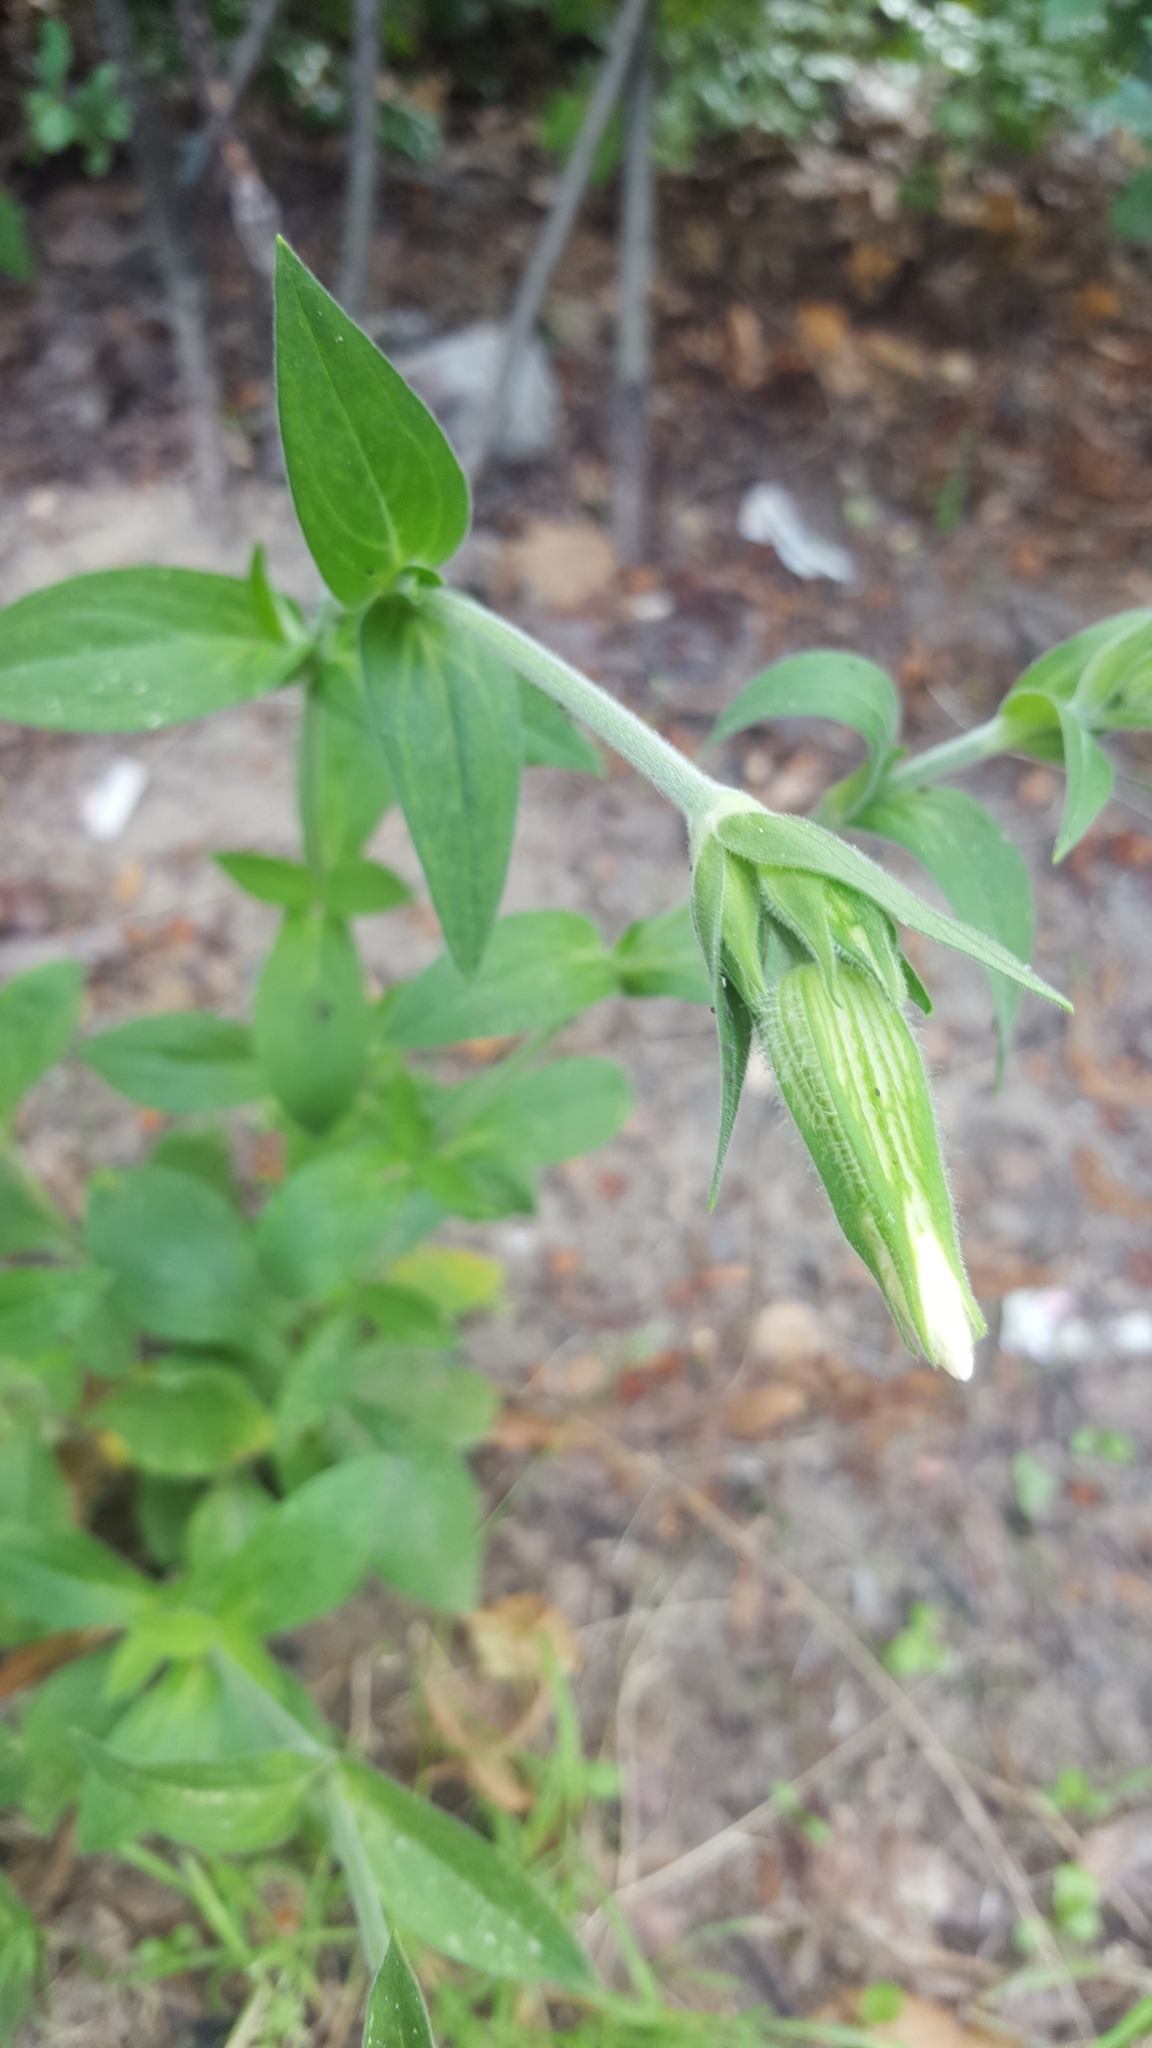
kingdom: Plantae
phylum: Tracheophyta
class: Magnoliopsida
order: Caryophyllales
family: Caryophyllaceae
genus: Silene
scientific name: Silene latifolia
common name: White campion
